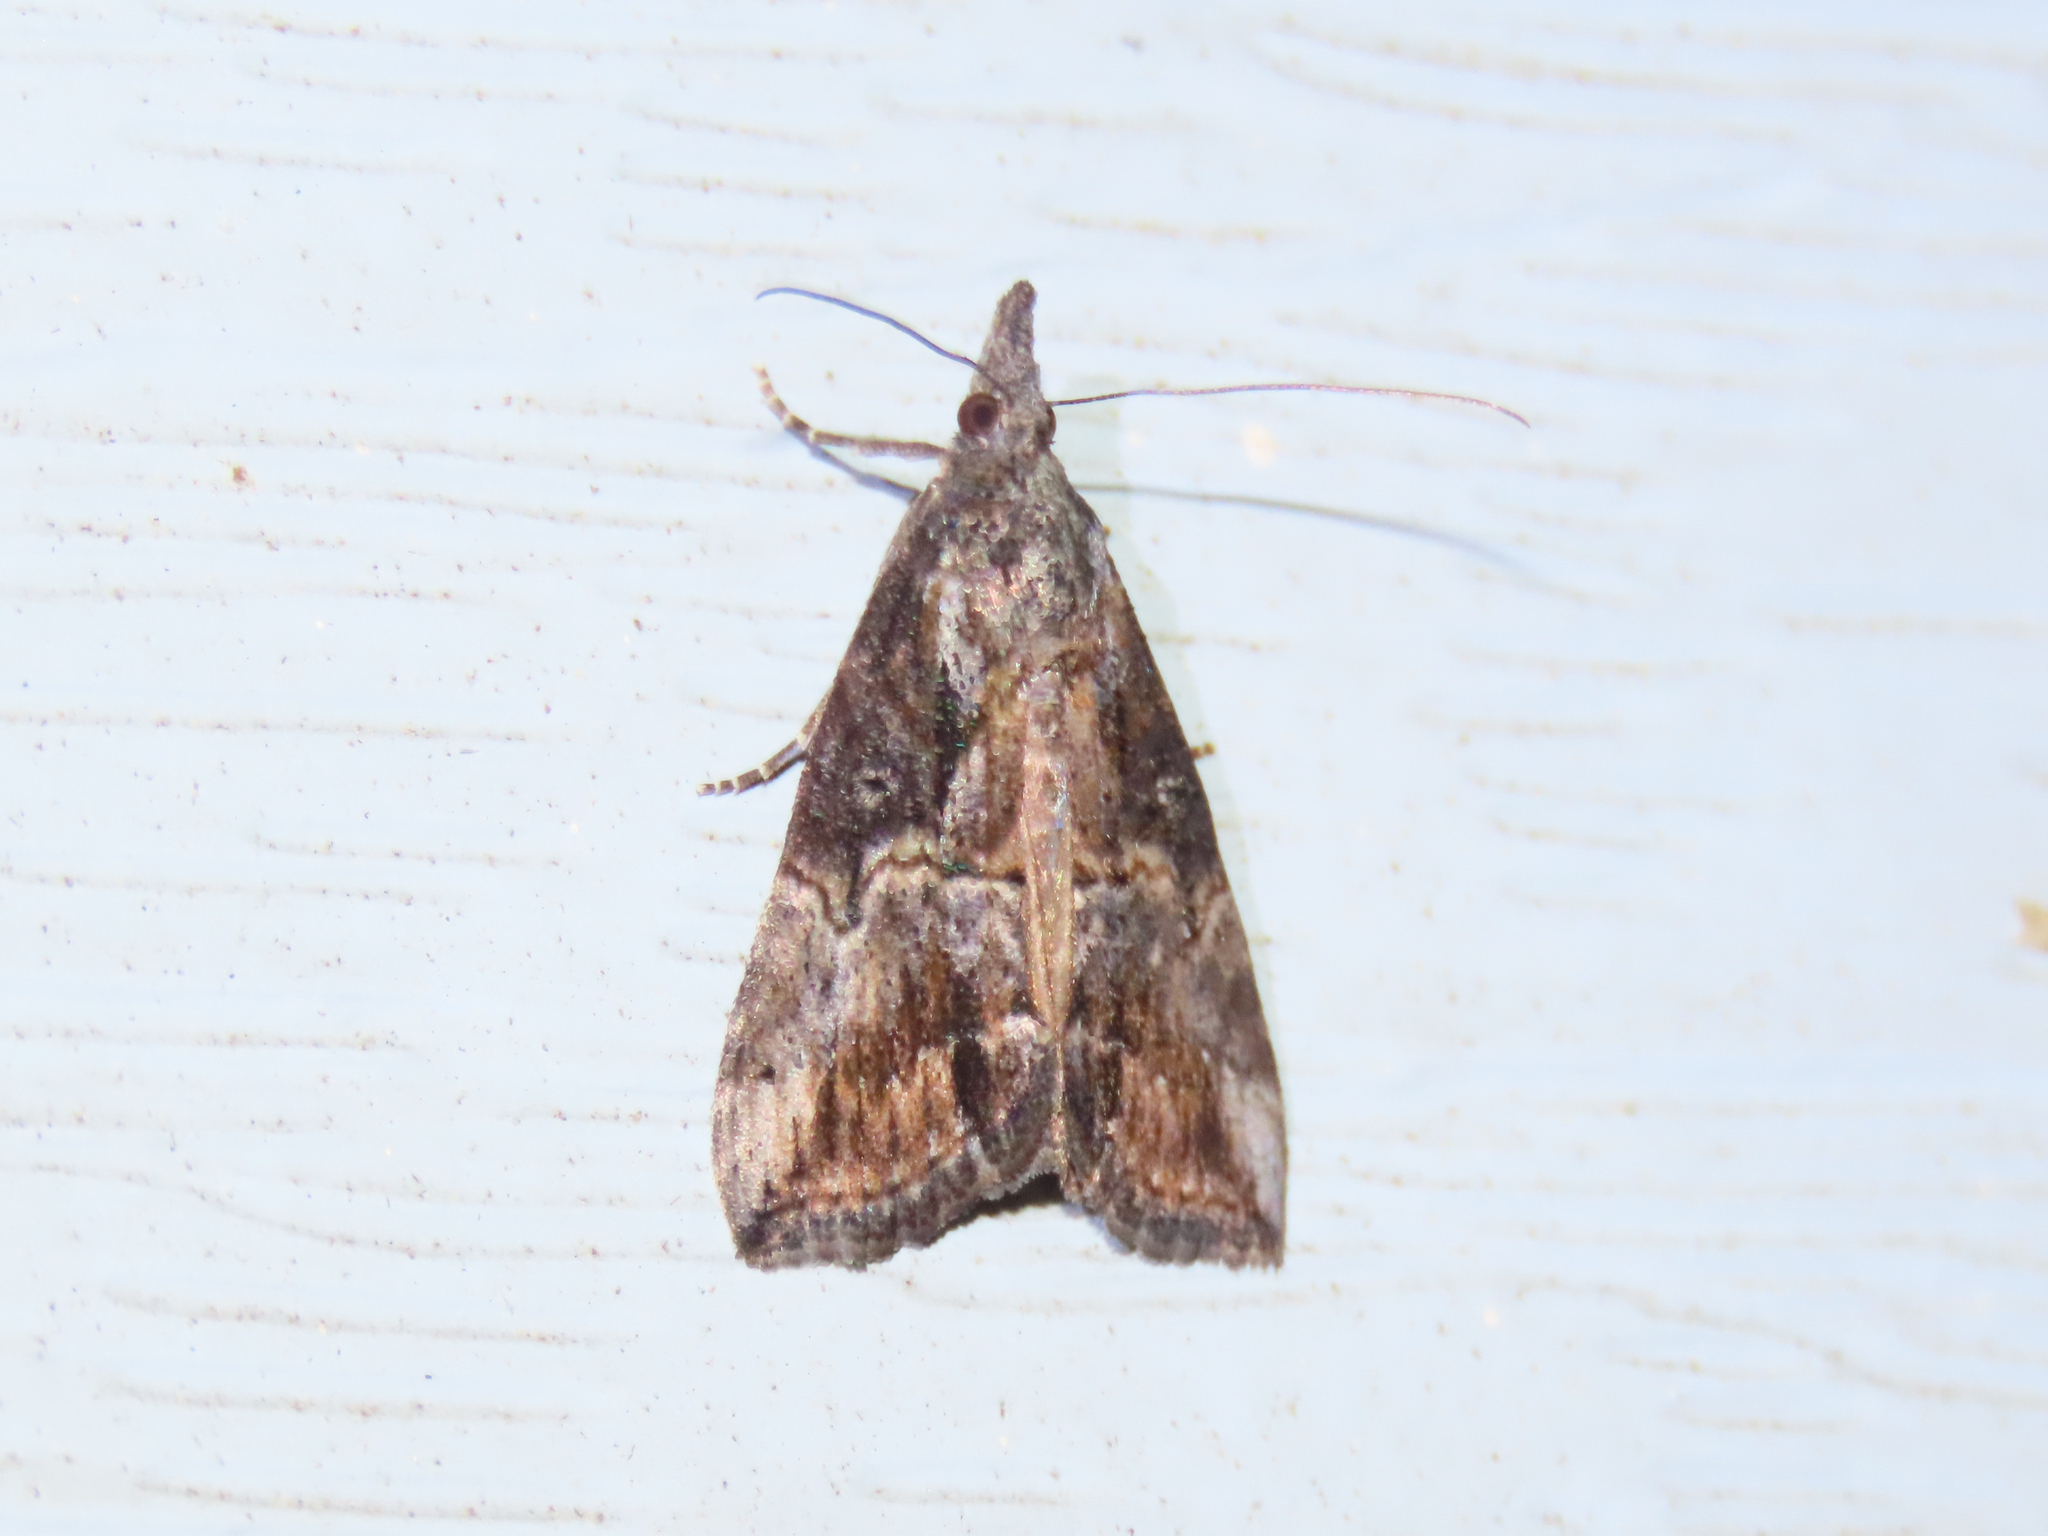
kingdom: Animalia
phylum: Arthropoda
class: Insecta
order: Lepidoptera
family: Erebidae
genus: Hypena
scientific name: Hypena scabra
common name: Green cloverworm
